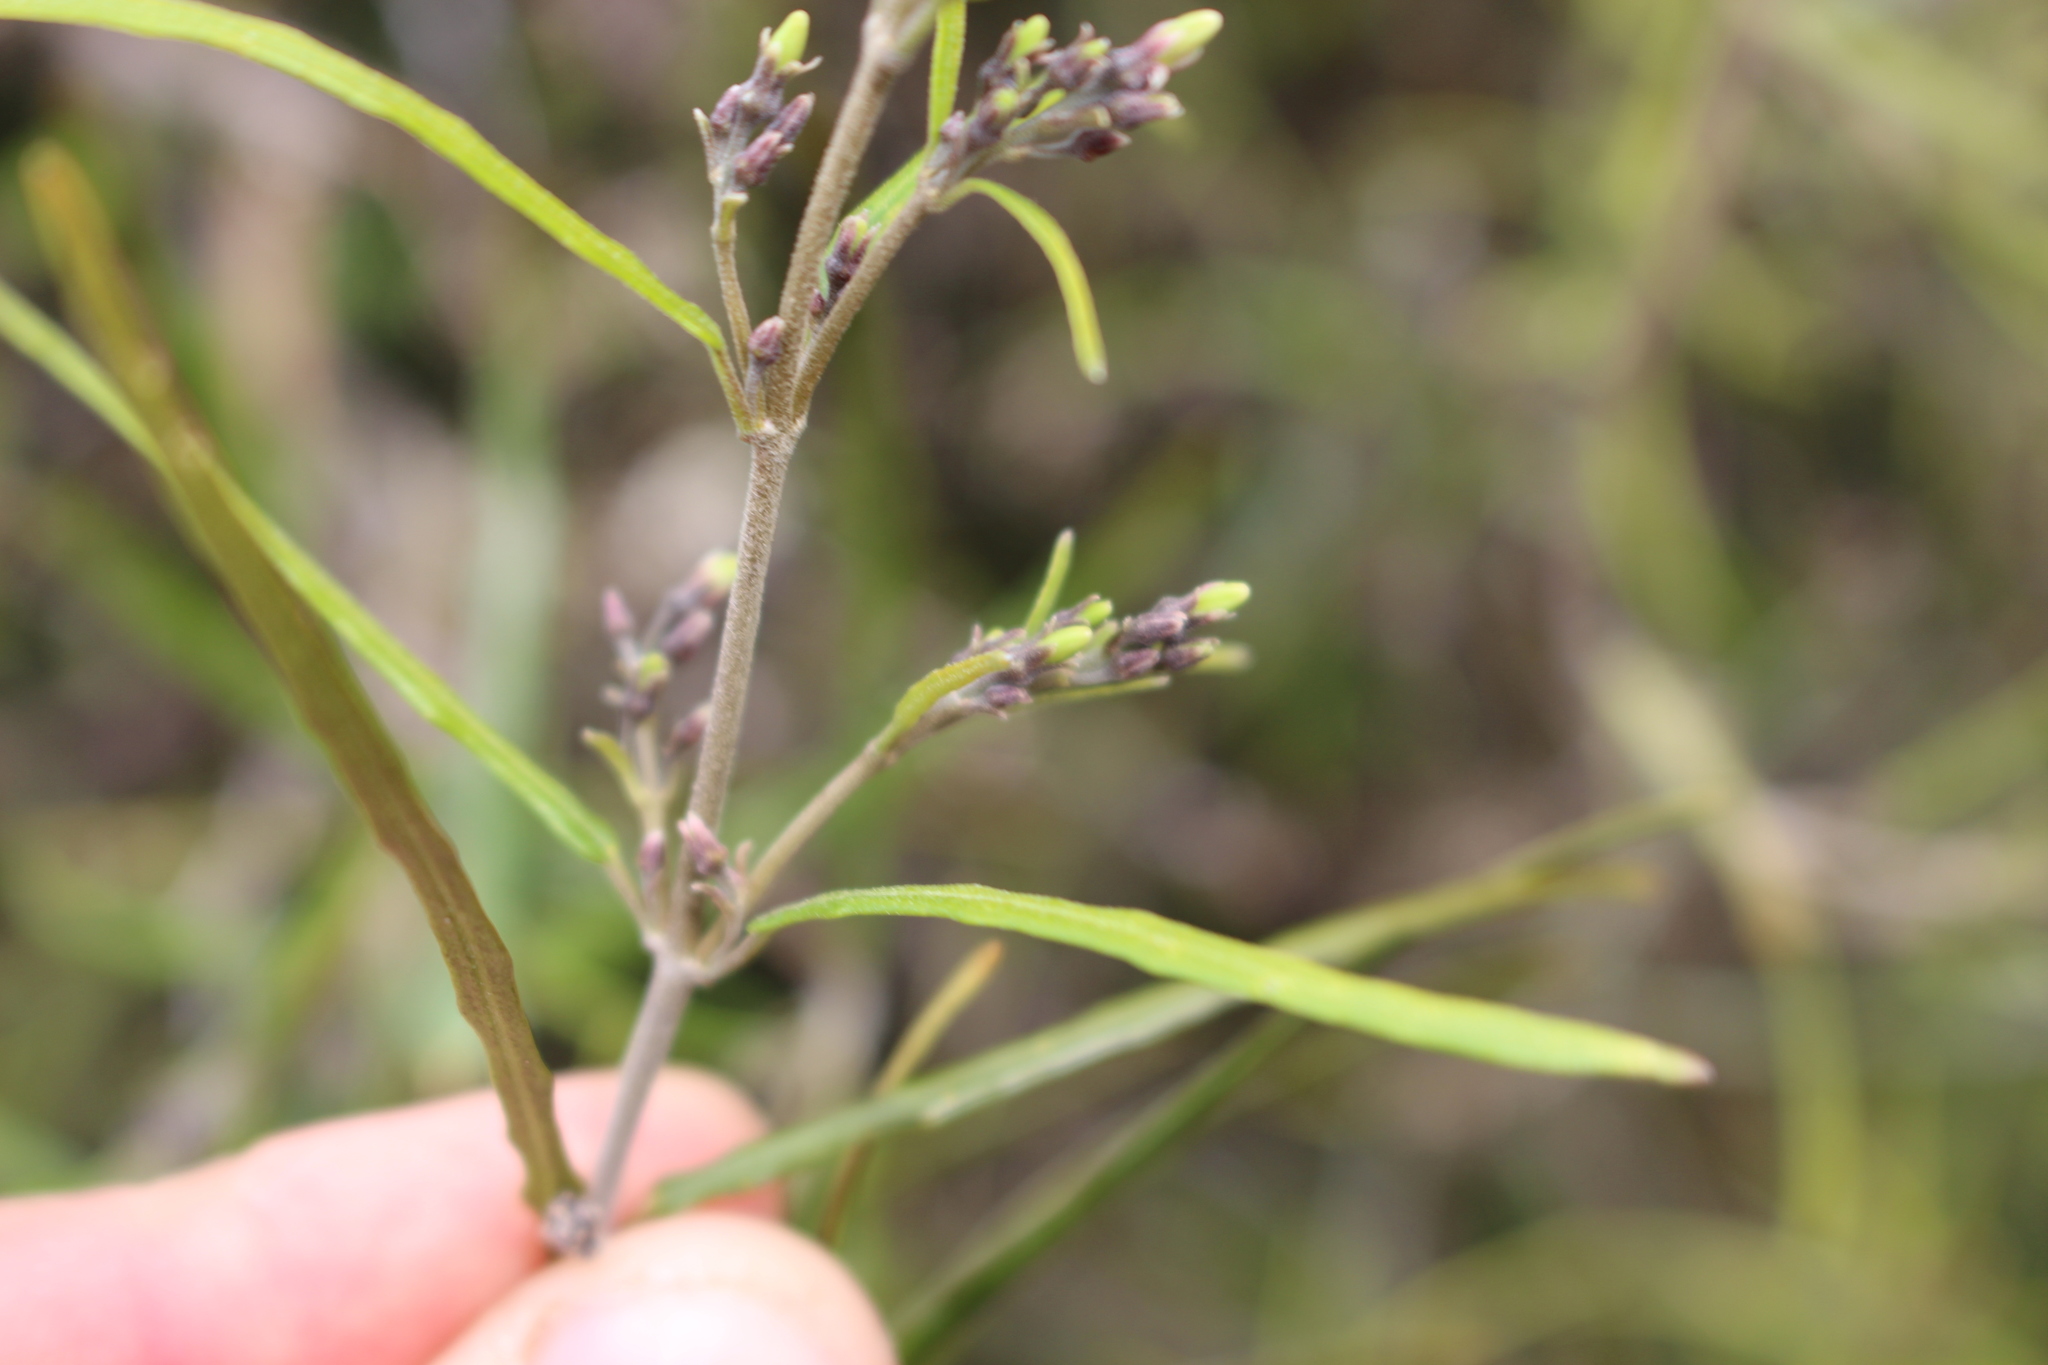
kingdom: Plantae
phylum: Tracheophyta
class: Magnoliopsida
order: Gentianales
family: Apocynaceae
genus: Parsonsia
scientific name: Parsonsia capsularis
